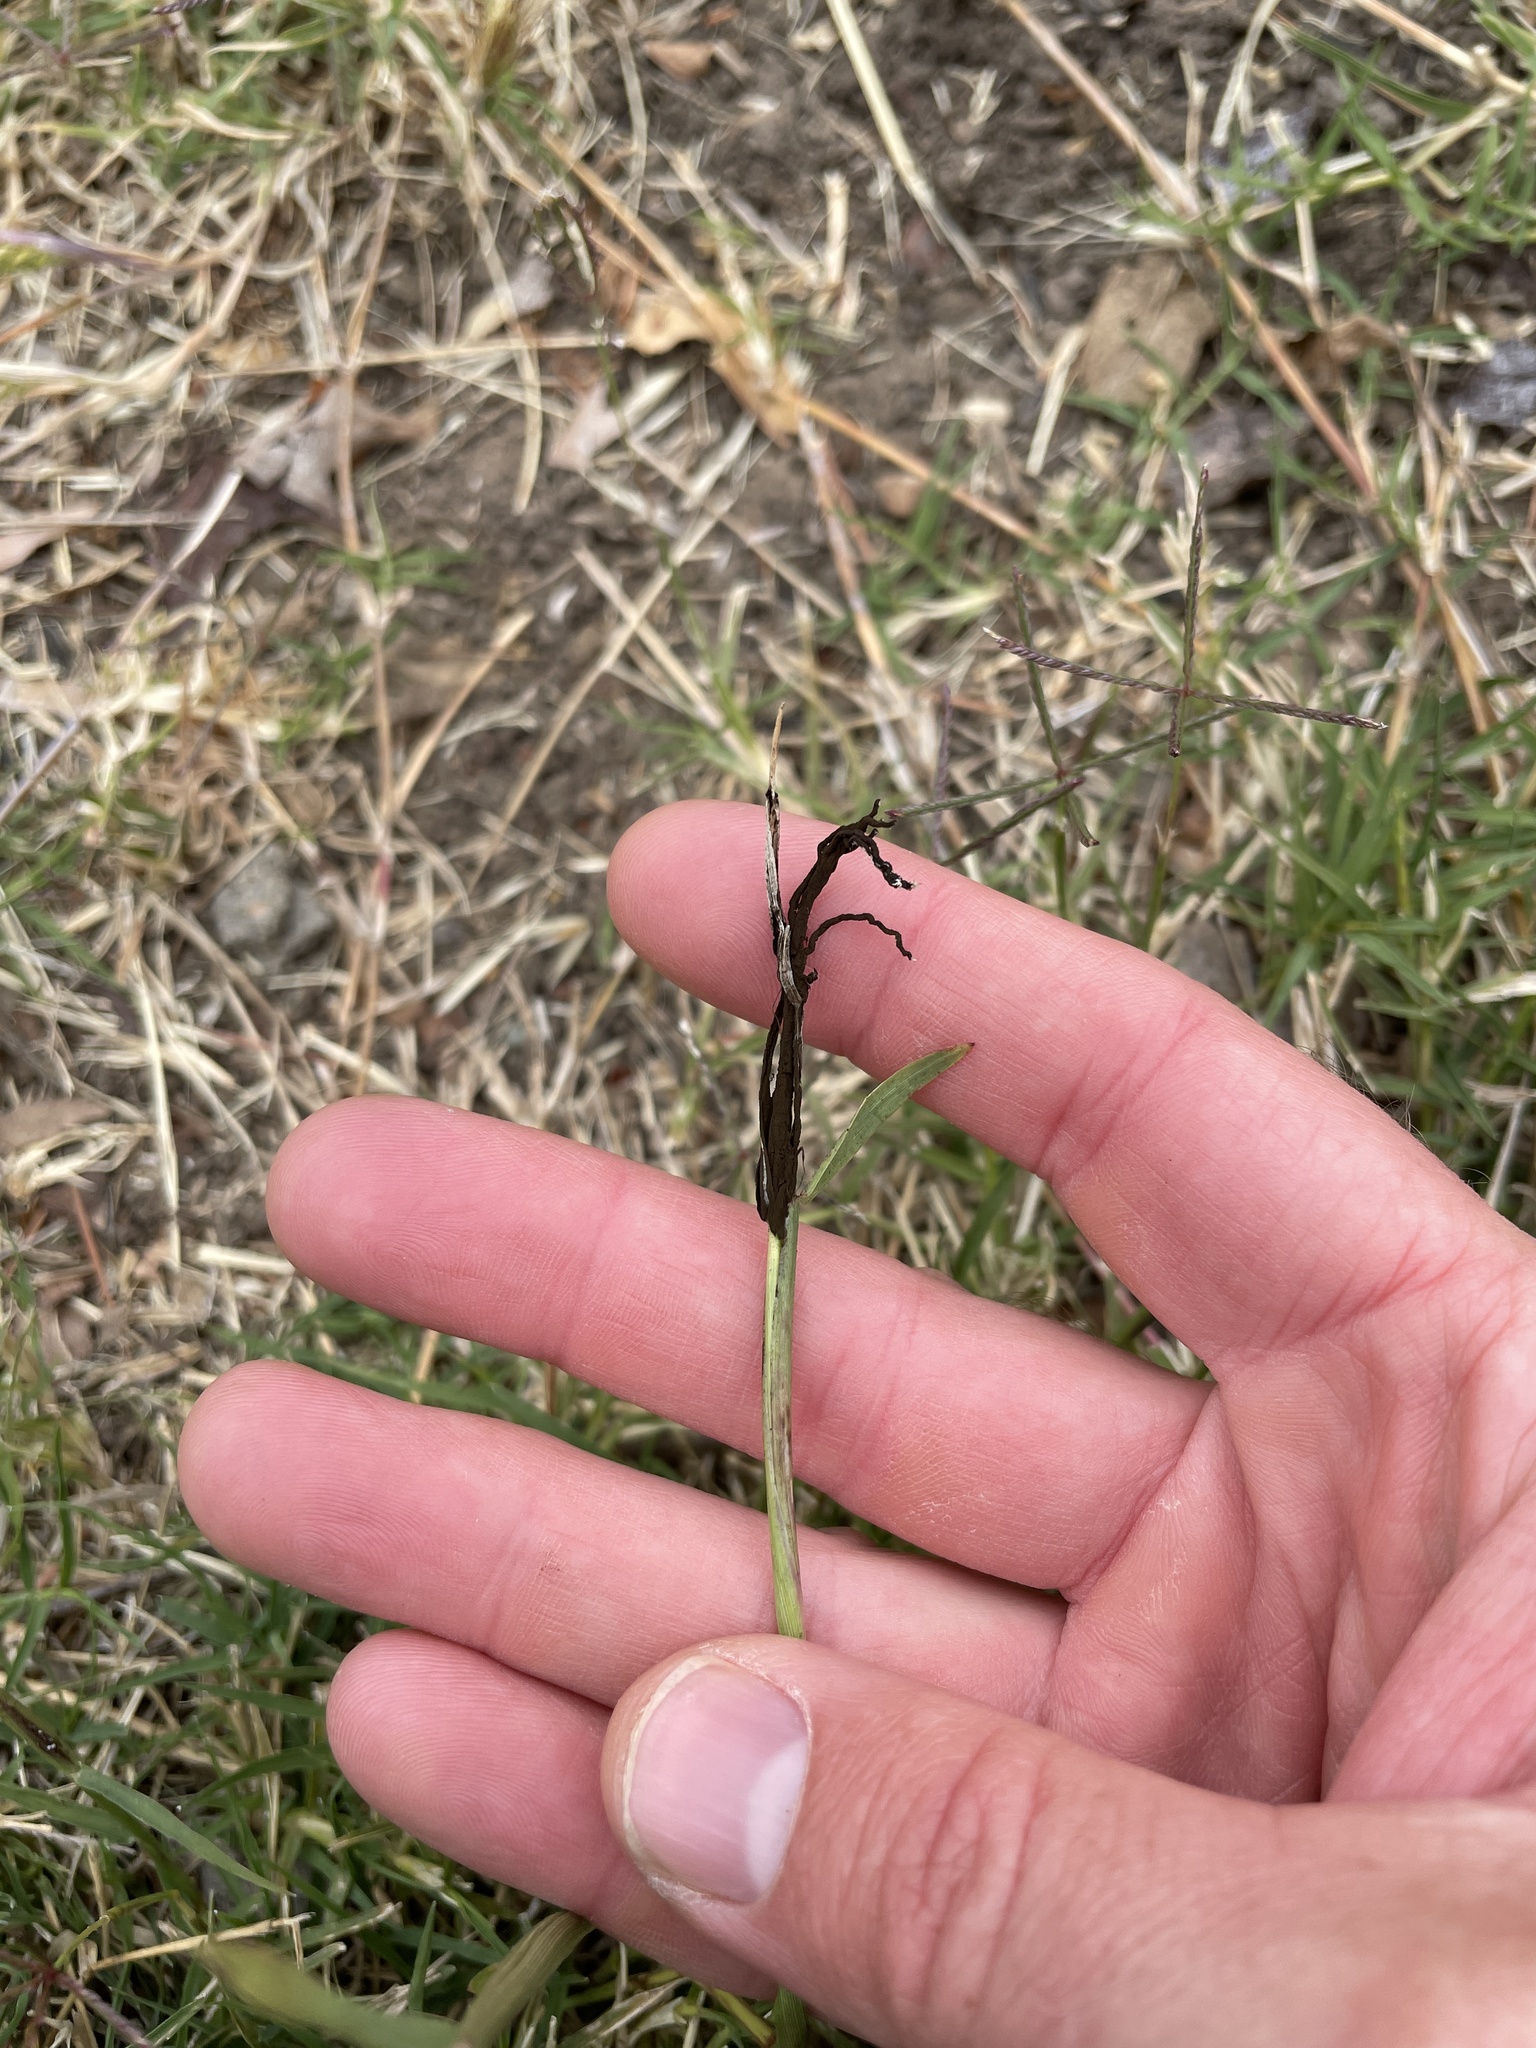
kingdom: Fungi
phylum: Basidiomycota
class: Ustilaginomycetes
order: Ustilaginales
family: Ustilaginaceae
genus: Ustilago
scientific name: Ustilago cynodontis
